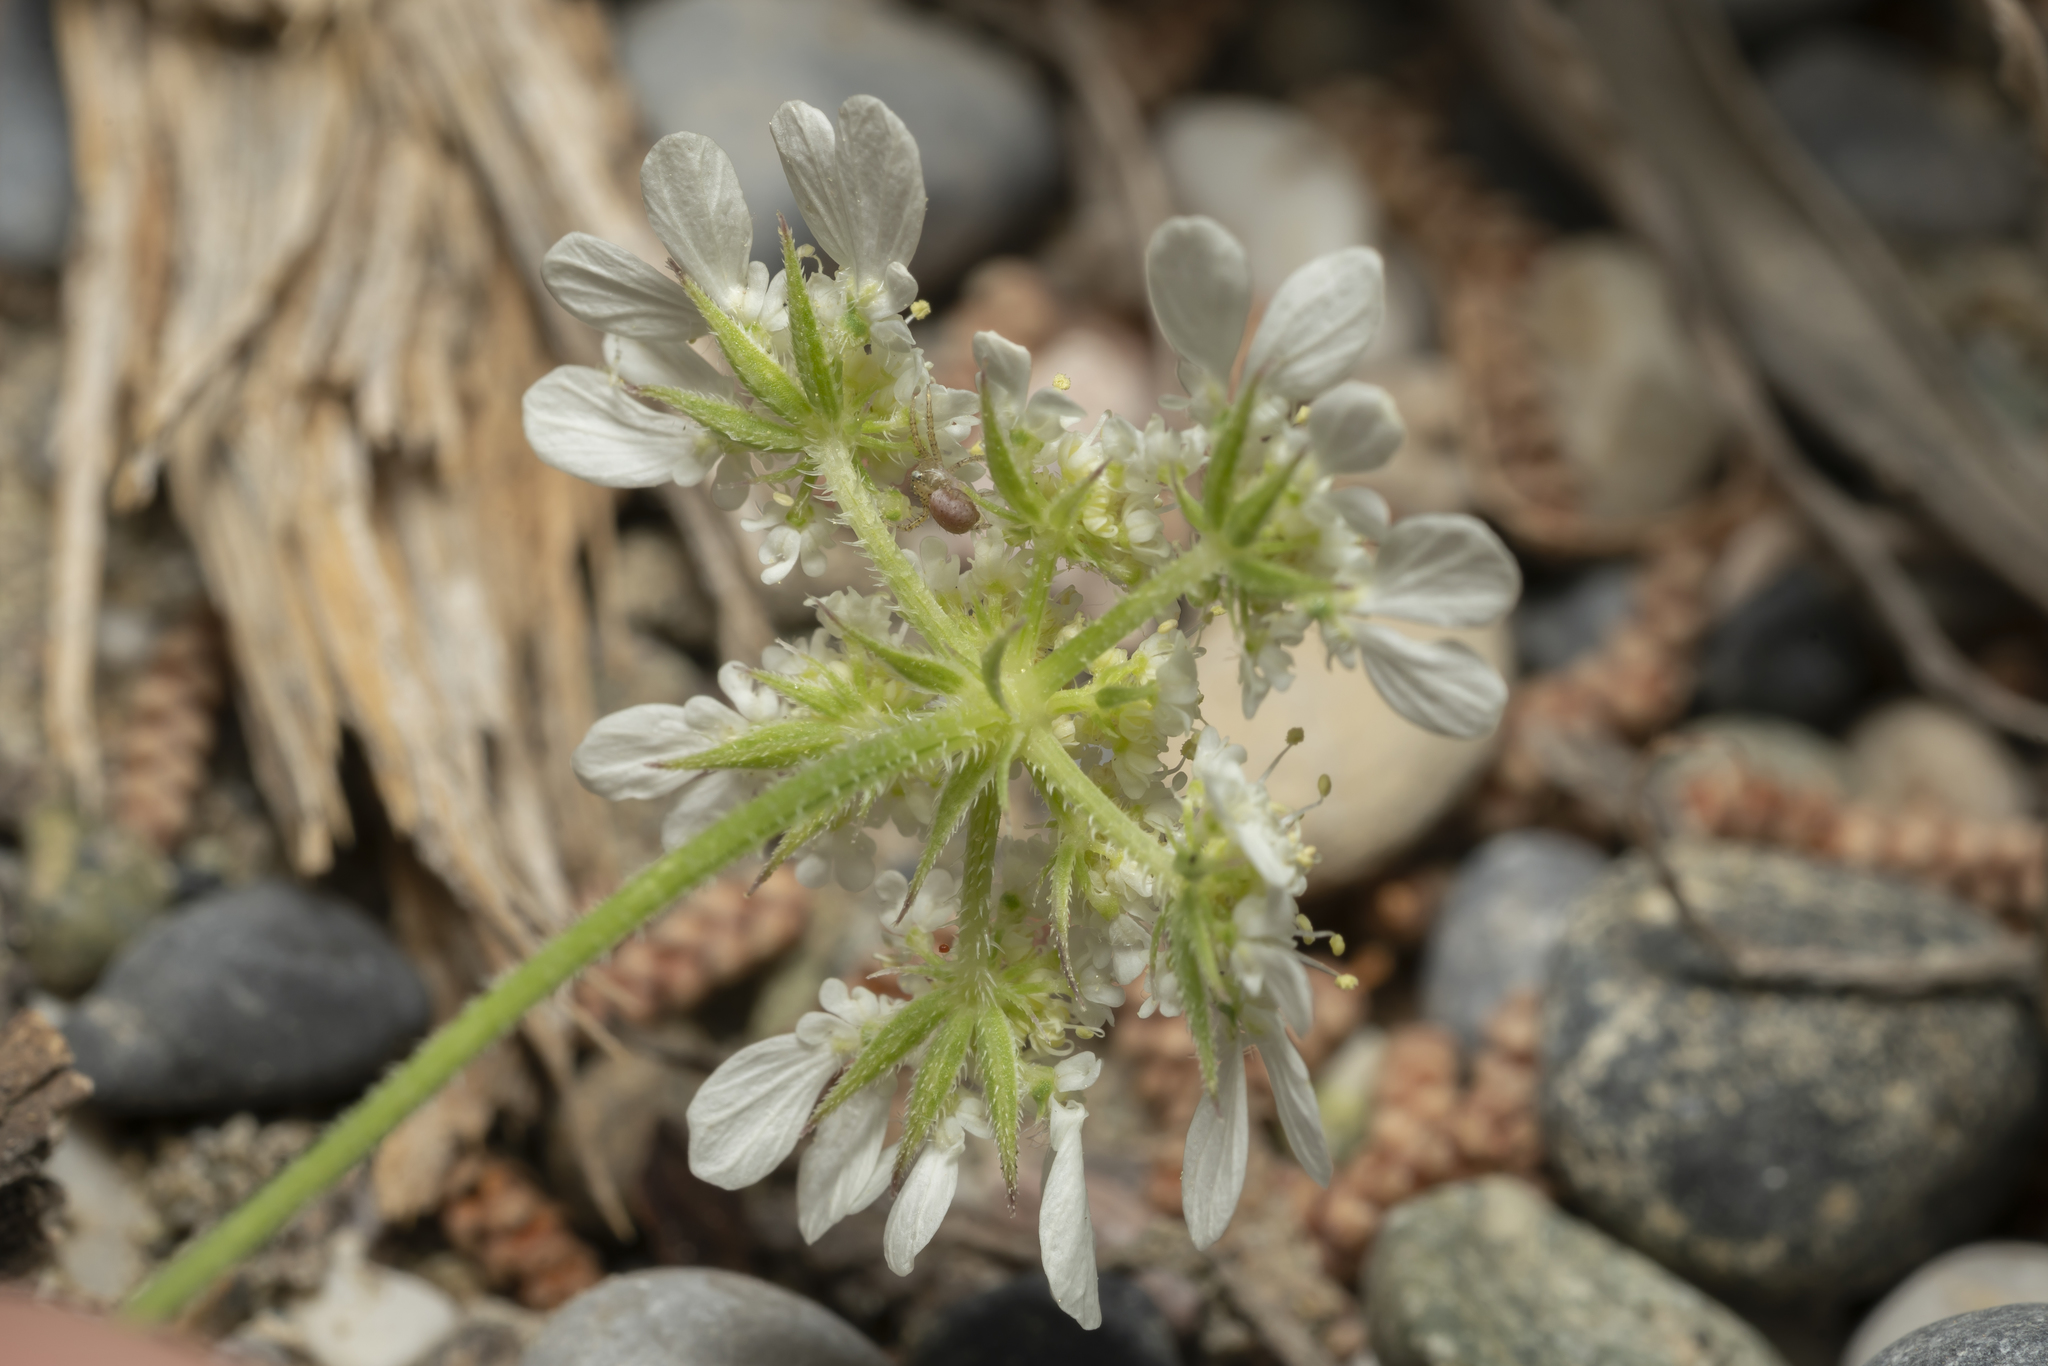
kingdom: Plantae
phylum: Tracheophyta
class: Magnoliopsida
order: Apiales
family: Apiaceae
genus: Tordylium
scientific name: Tordylium aegaeum
